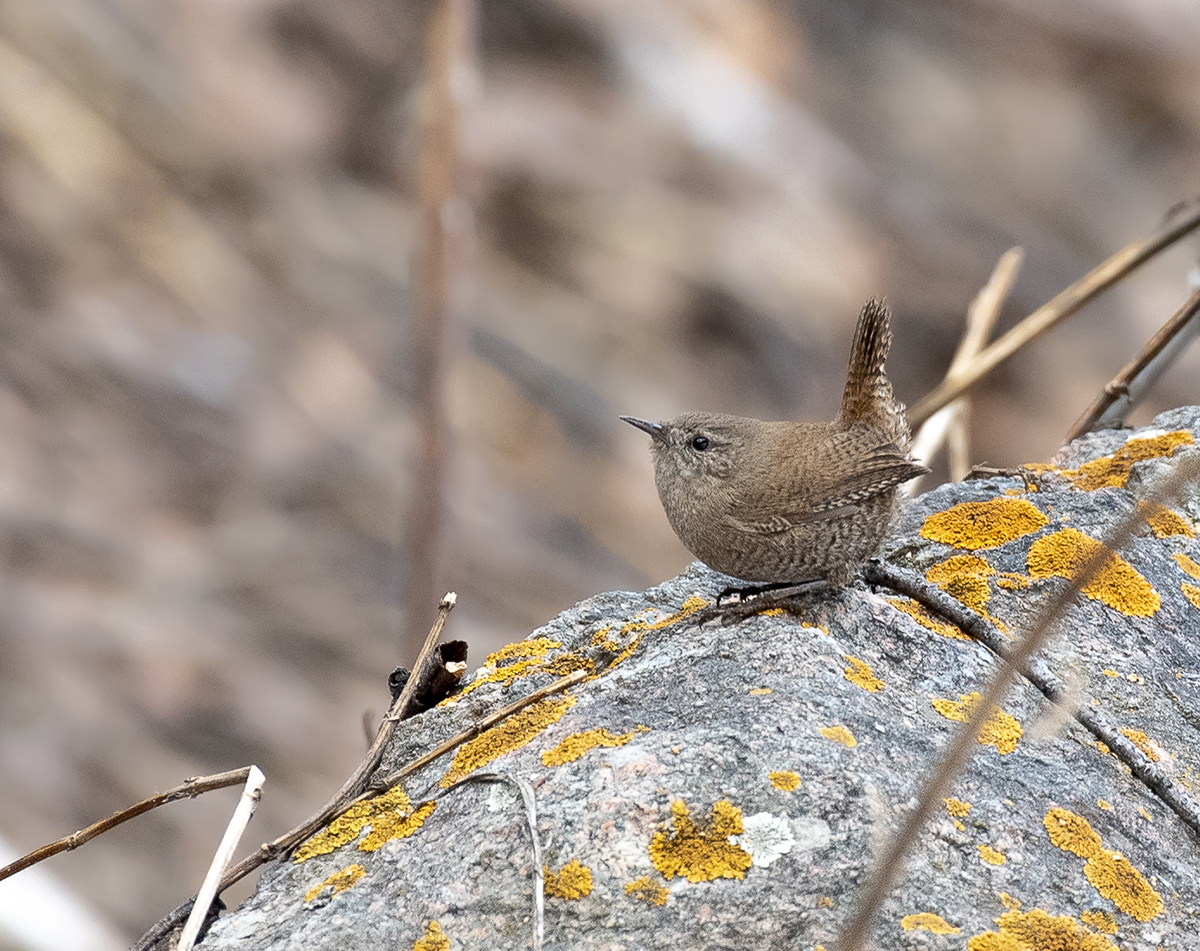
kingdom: Animalia
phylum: Chordata
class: Aves
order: Passeriformes
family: Troglodytidae
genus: Troglodytes
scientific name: Troglodytes troglodytes
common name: Eurasian wren
